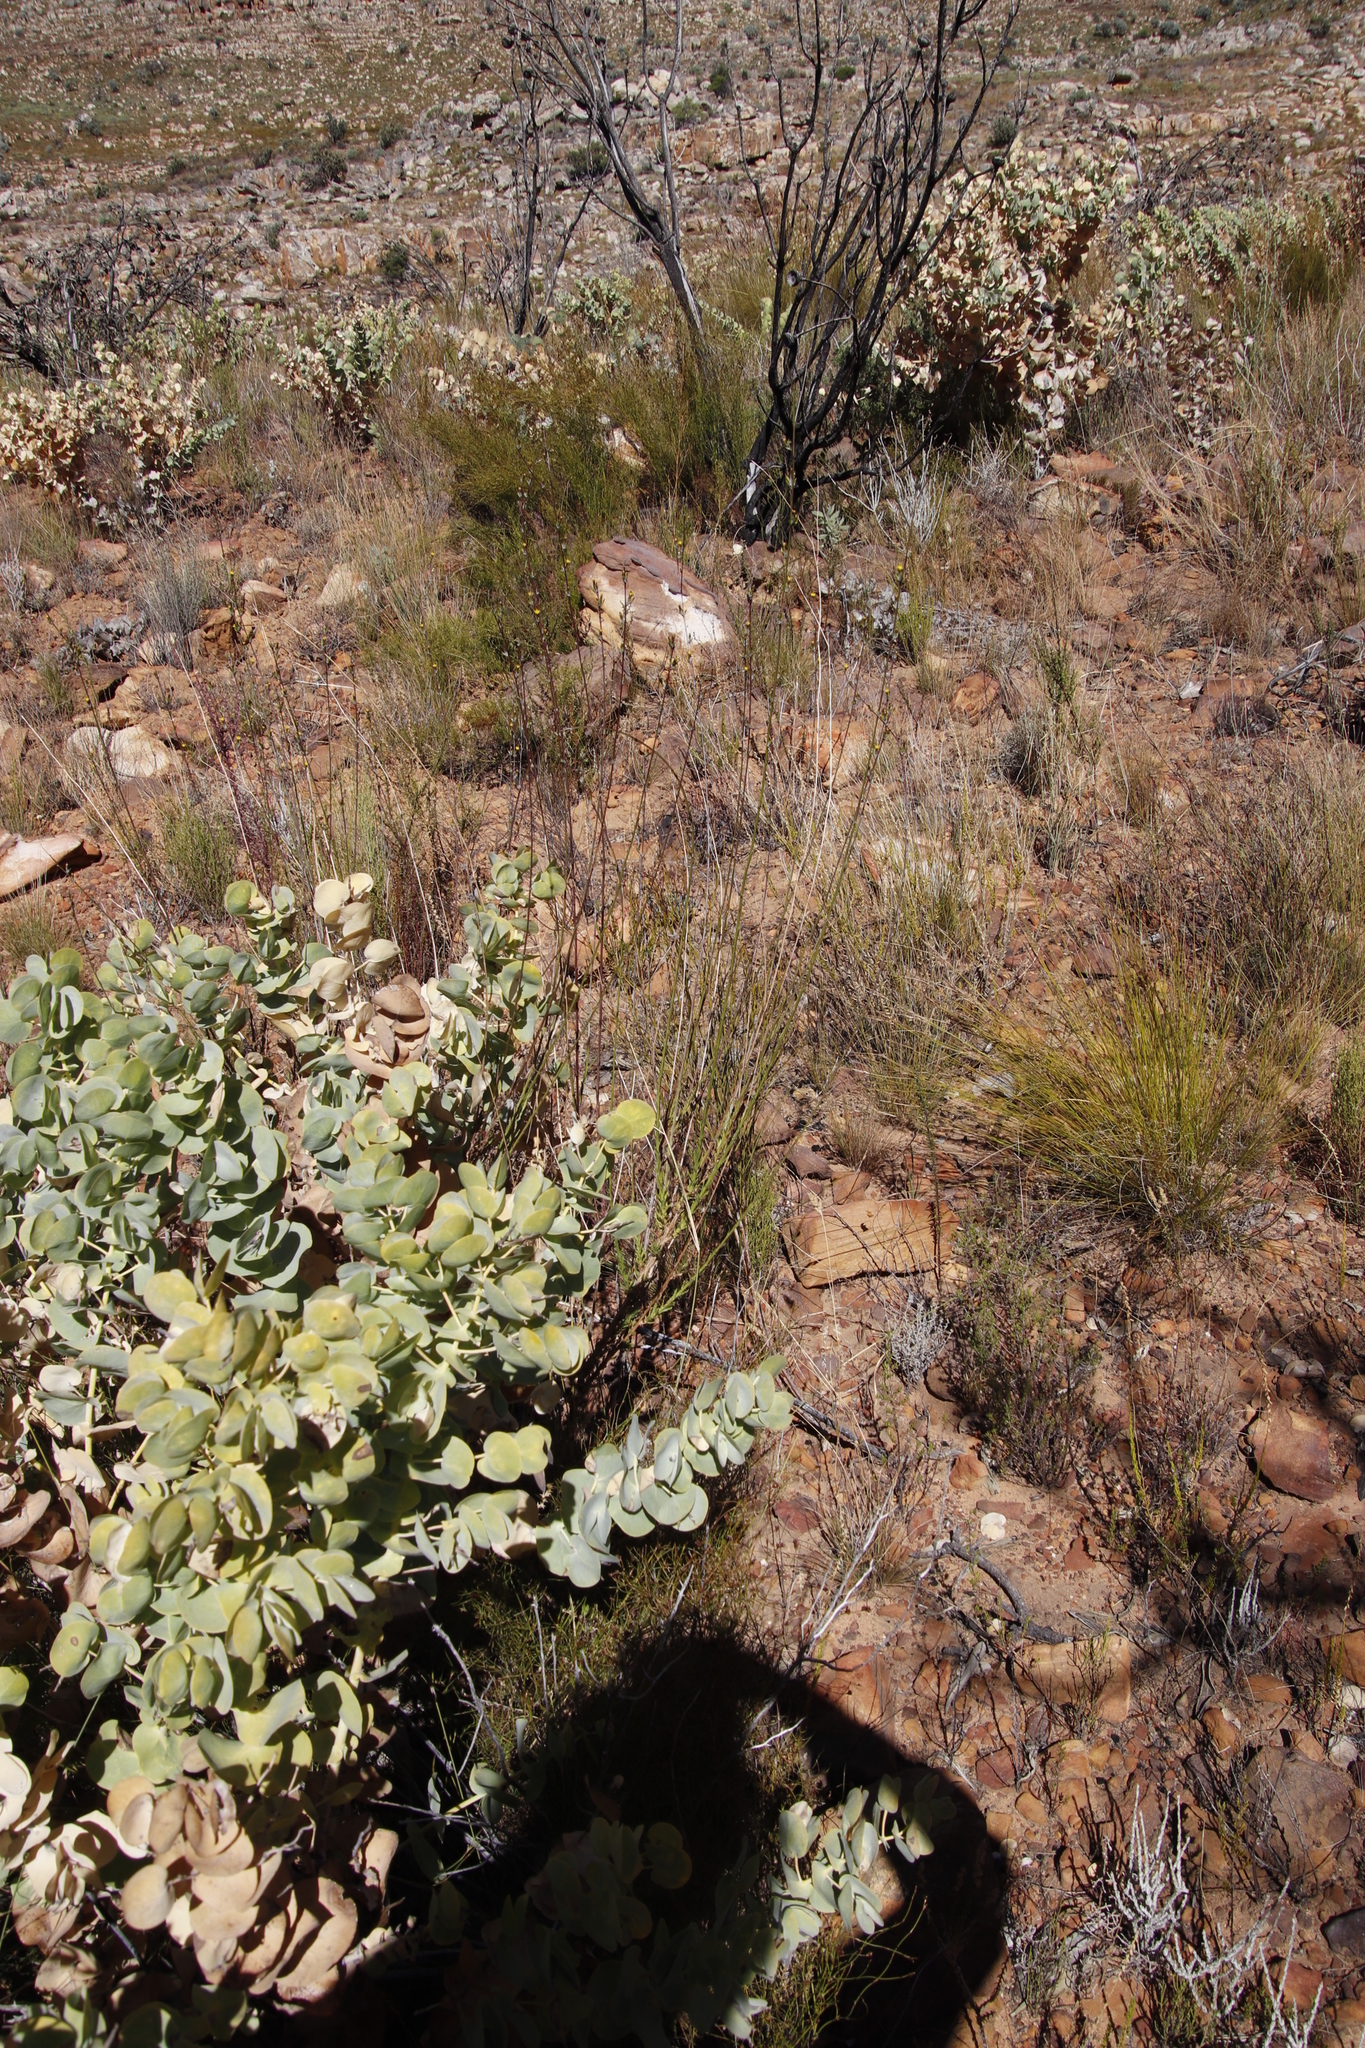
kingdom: Plantae
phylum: Tracheophyta
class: Magnoliopsida
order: Fabales
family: Fabaceae
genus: Rafnia
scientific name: Rafnia amplexicaulis
